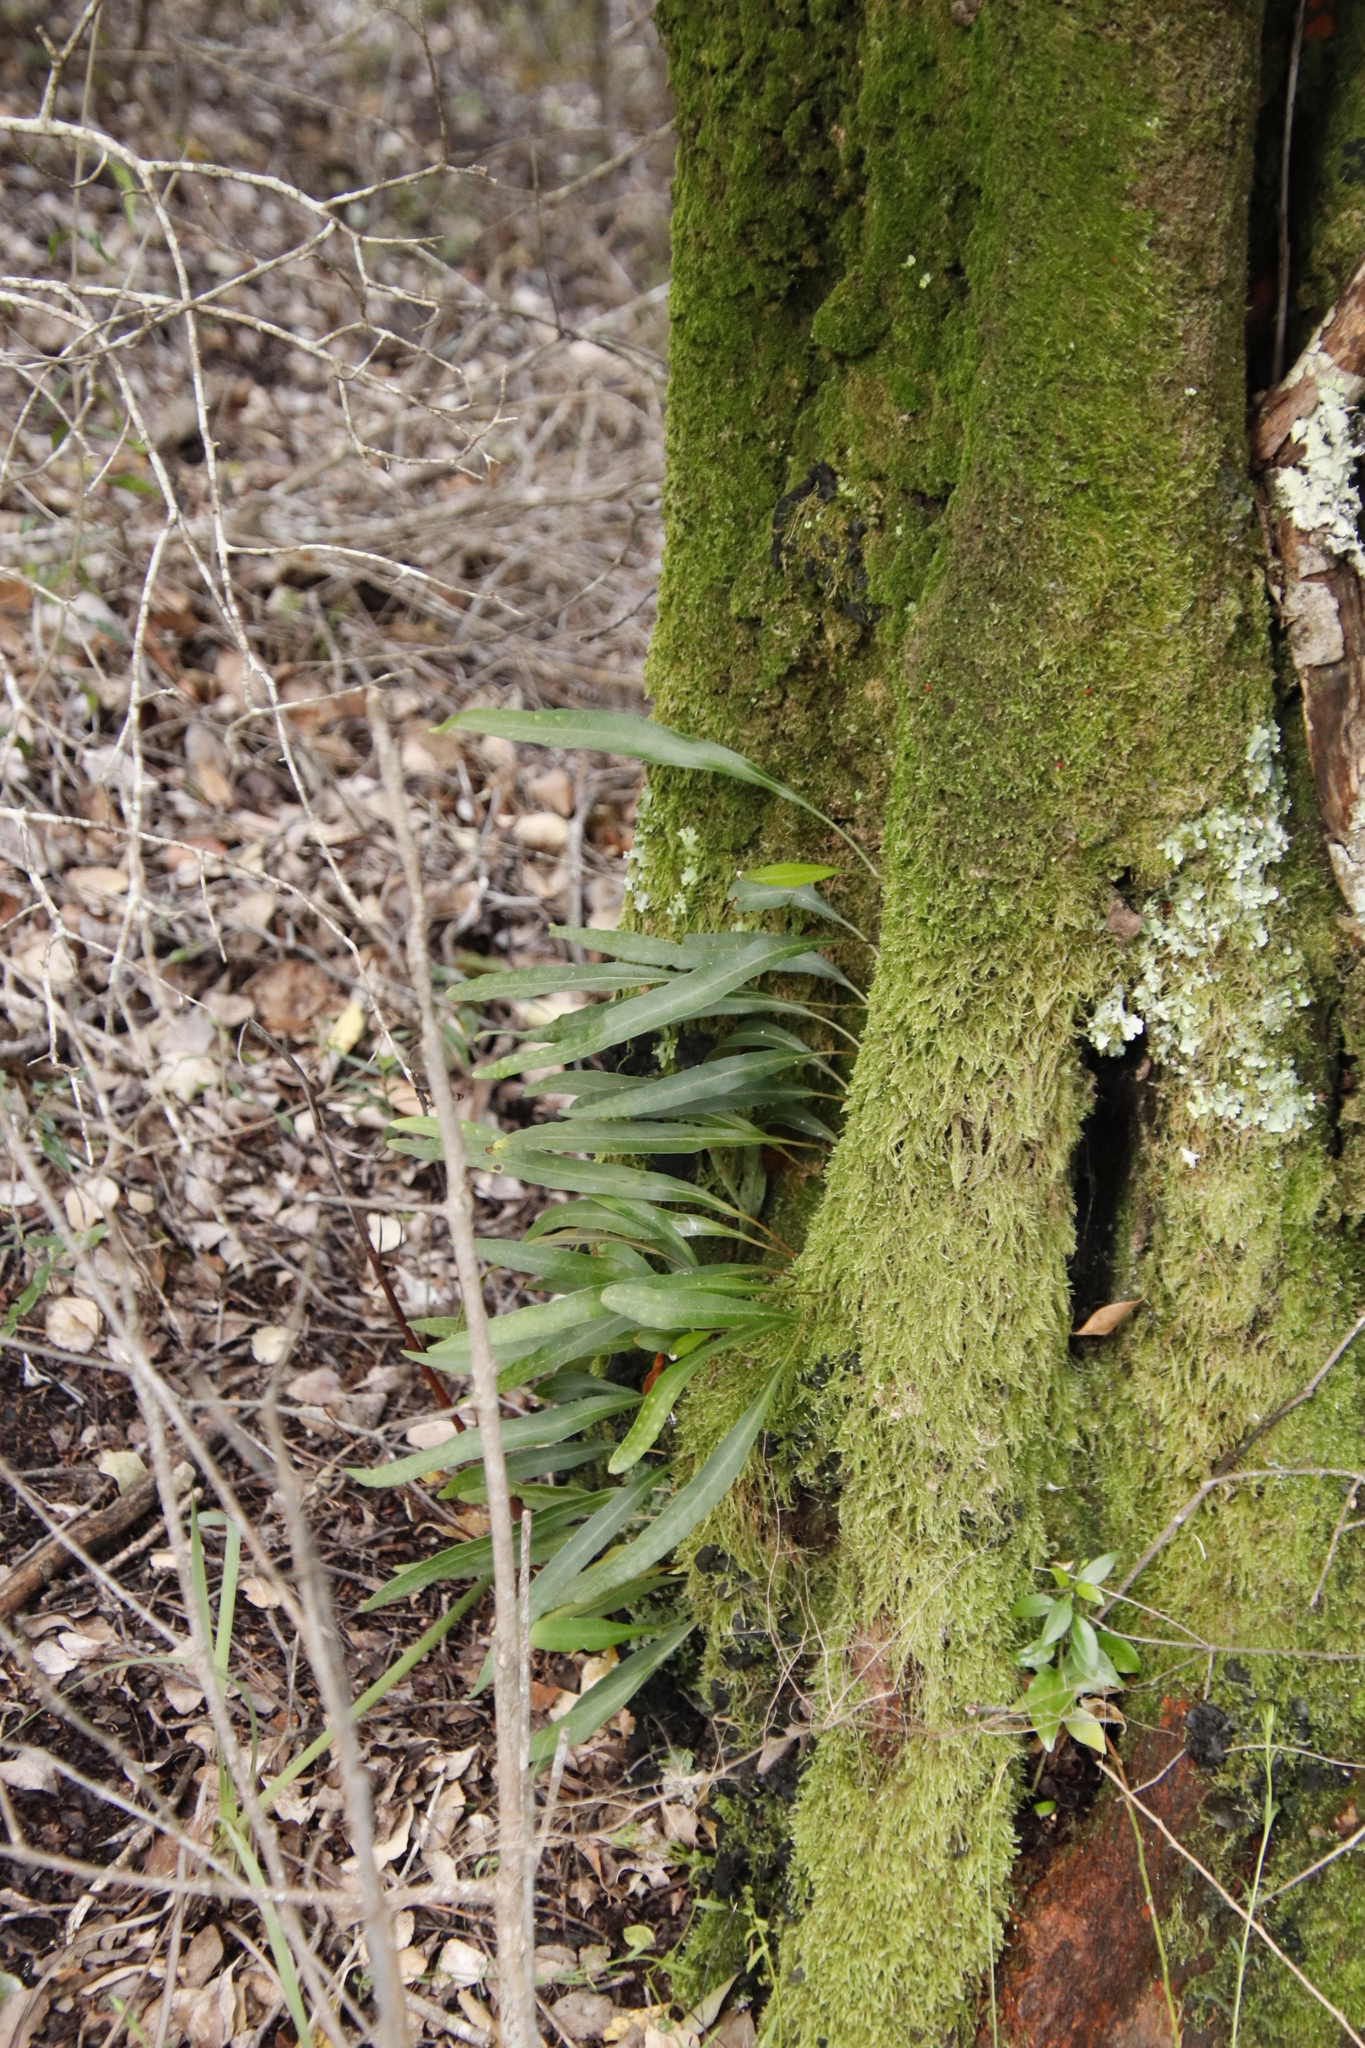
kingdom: Plantae
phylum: Tracheophyta
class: Polypodiopsida
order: Polypodiales
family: Polypodiaceae
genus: Pleopeltis
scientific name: Pleopeltis macrocarpa
